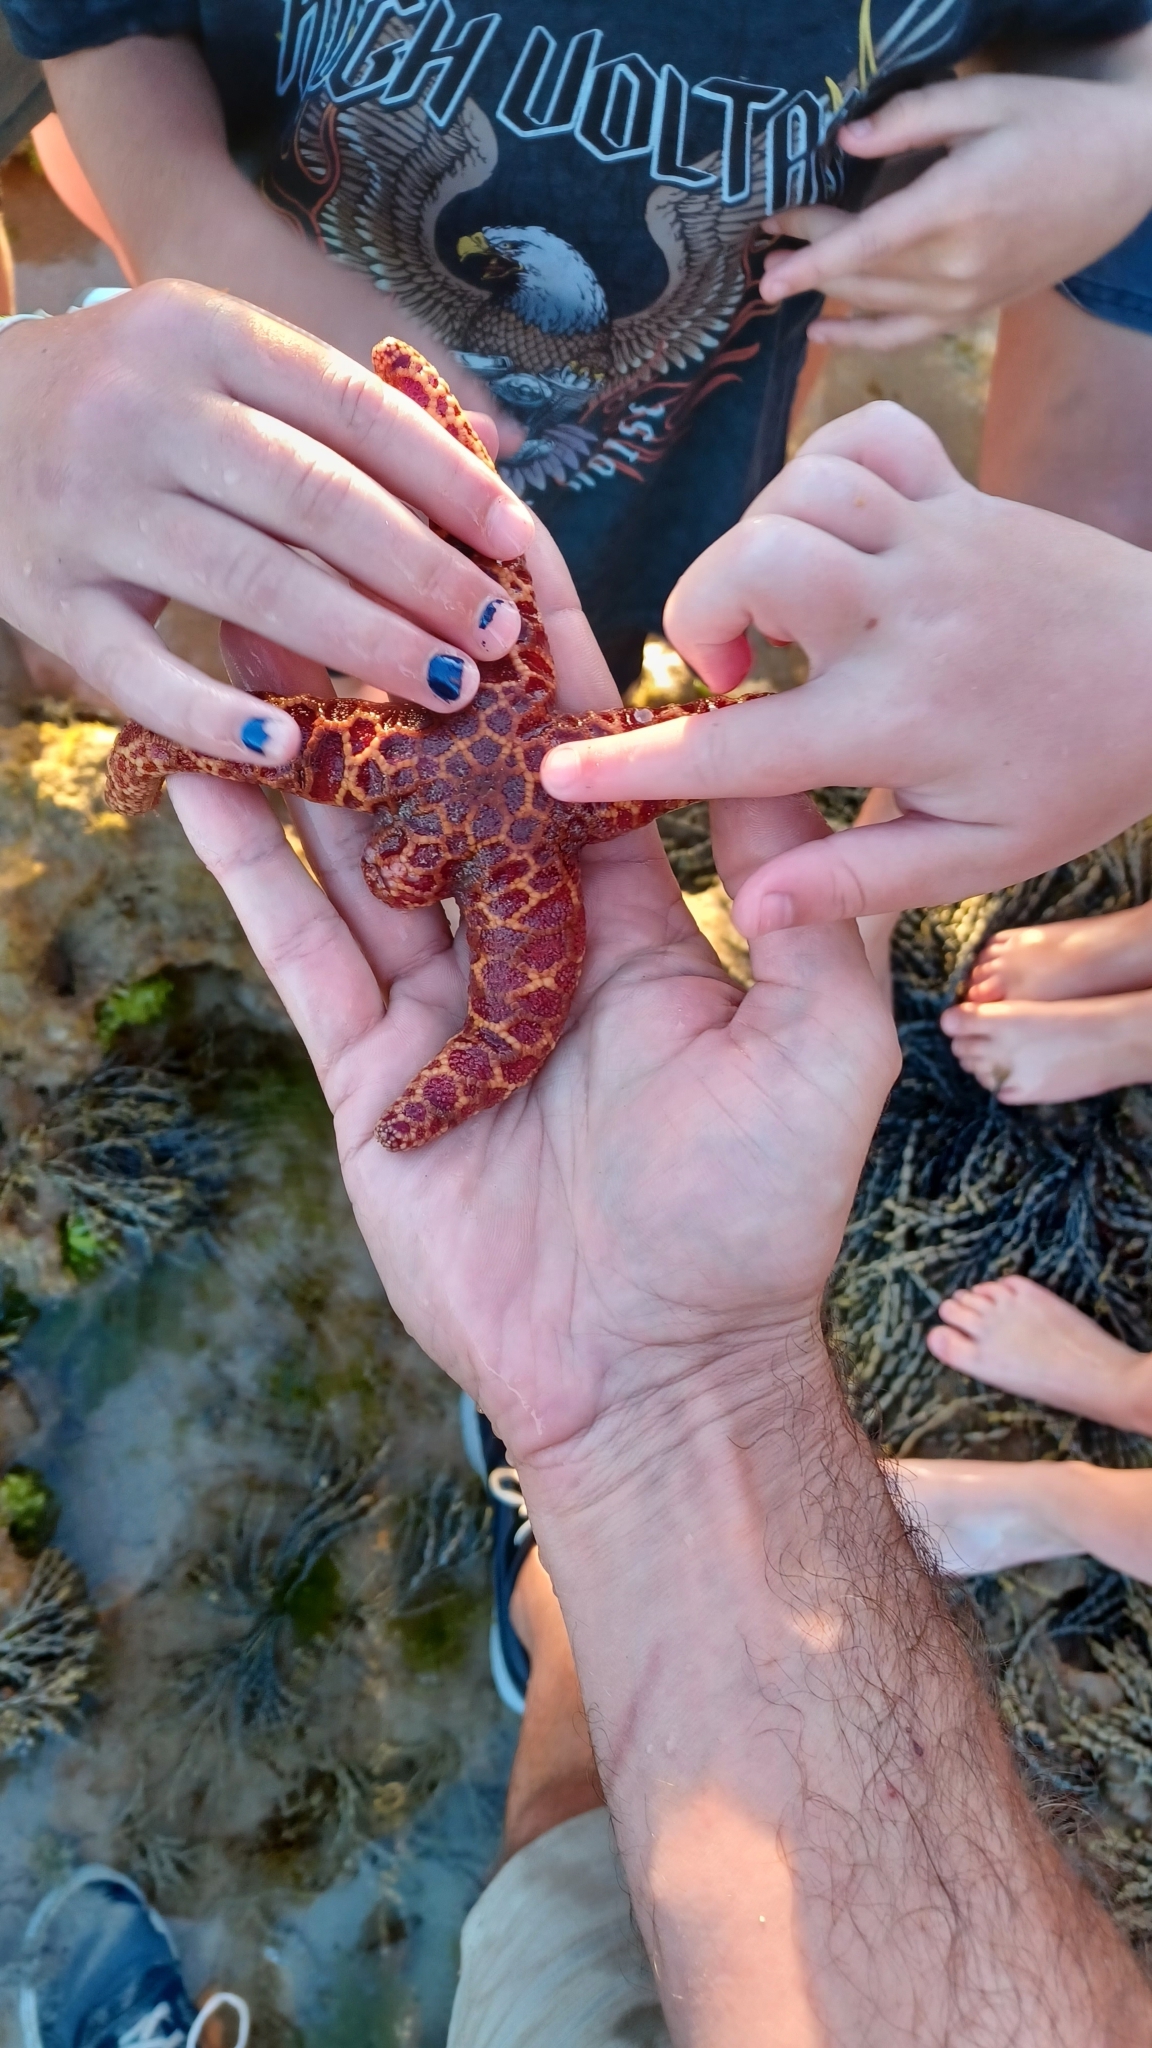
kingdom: Animalia
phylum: Echinodermata
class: Asteroidea
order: Spinulosida
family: Echinasteridae
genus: Plectaster
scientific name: Plectaster decanus
